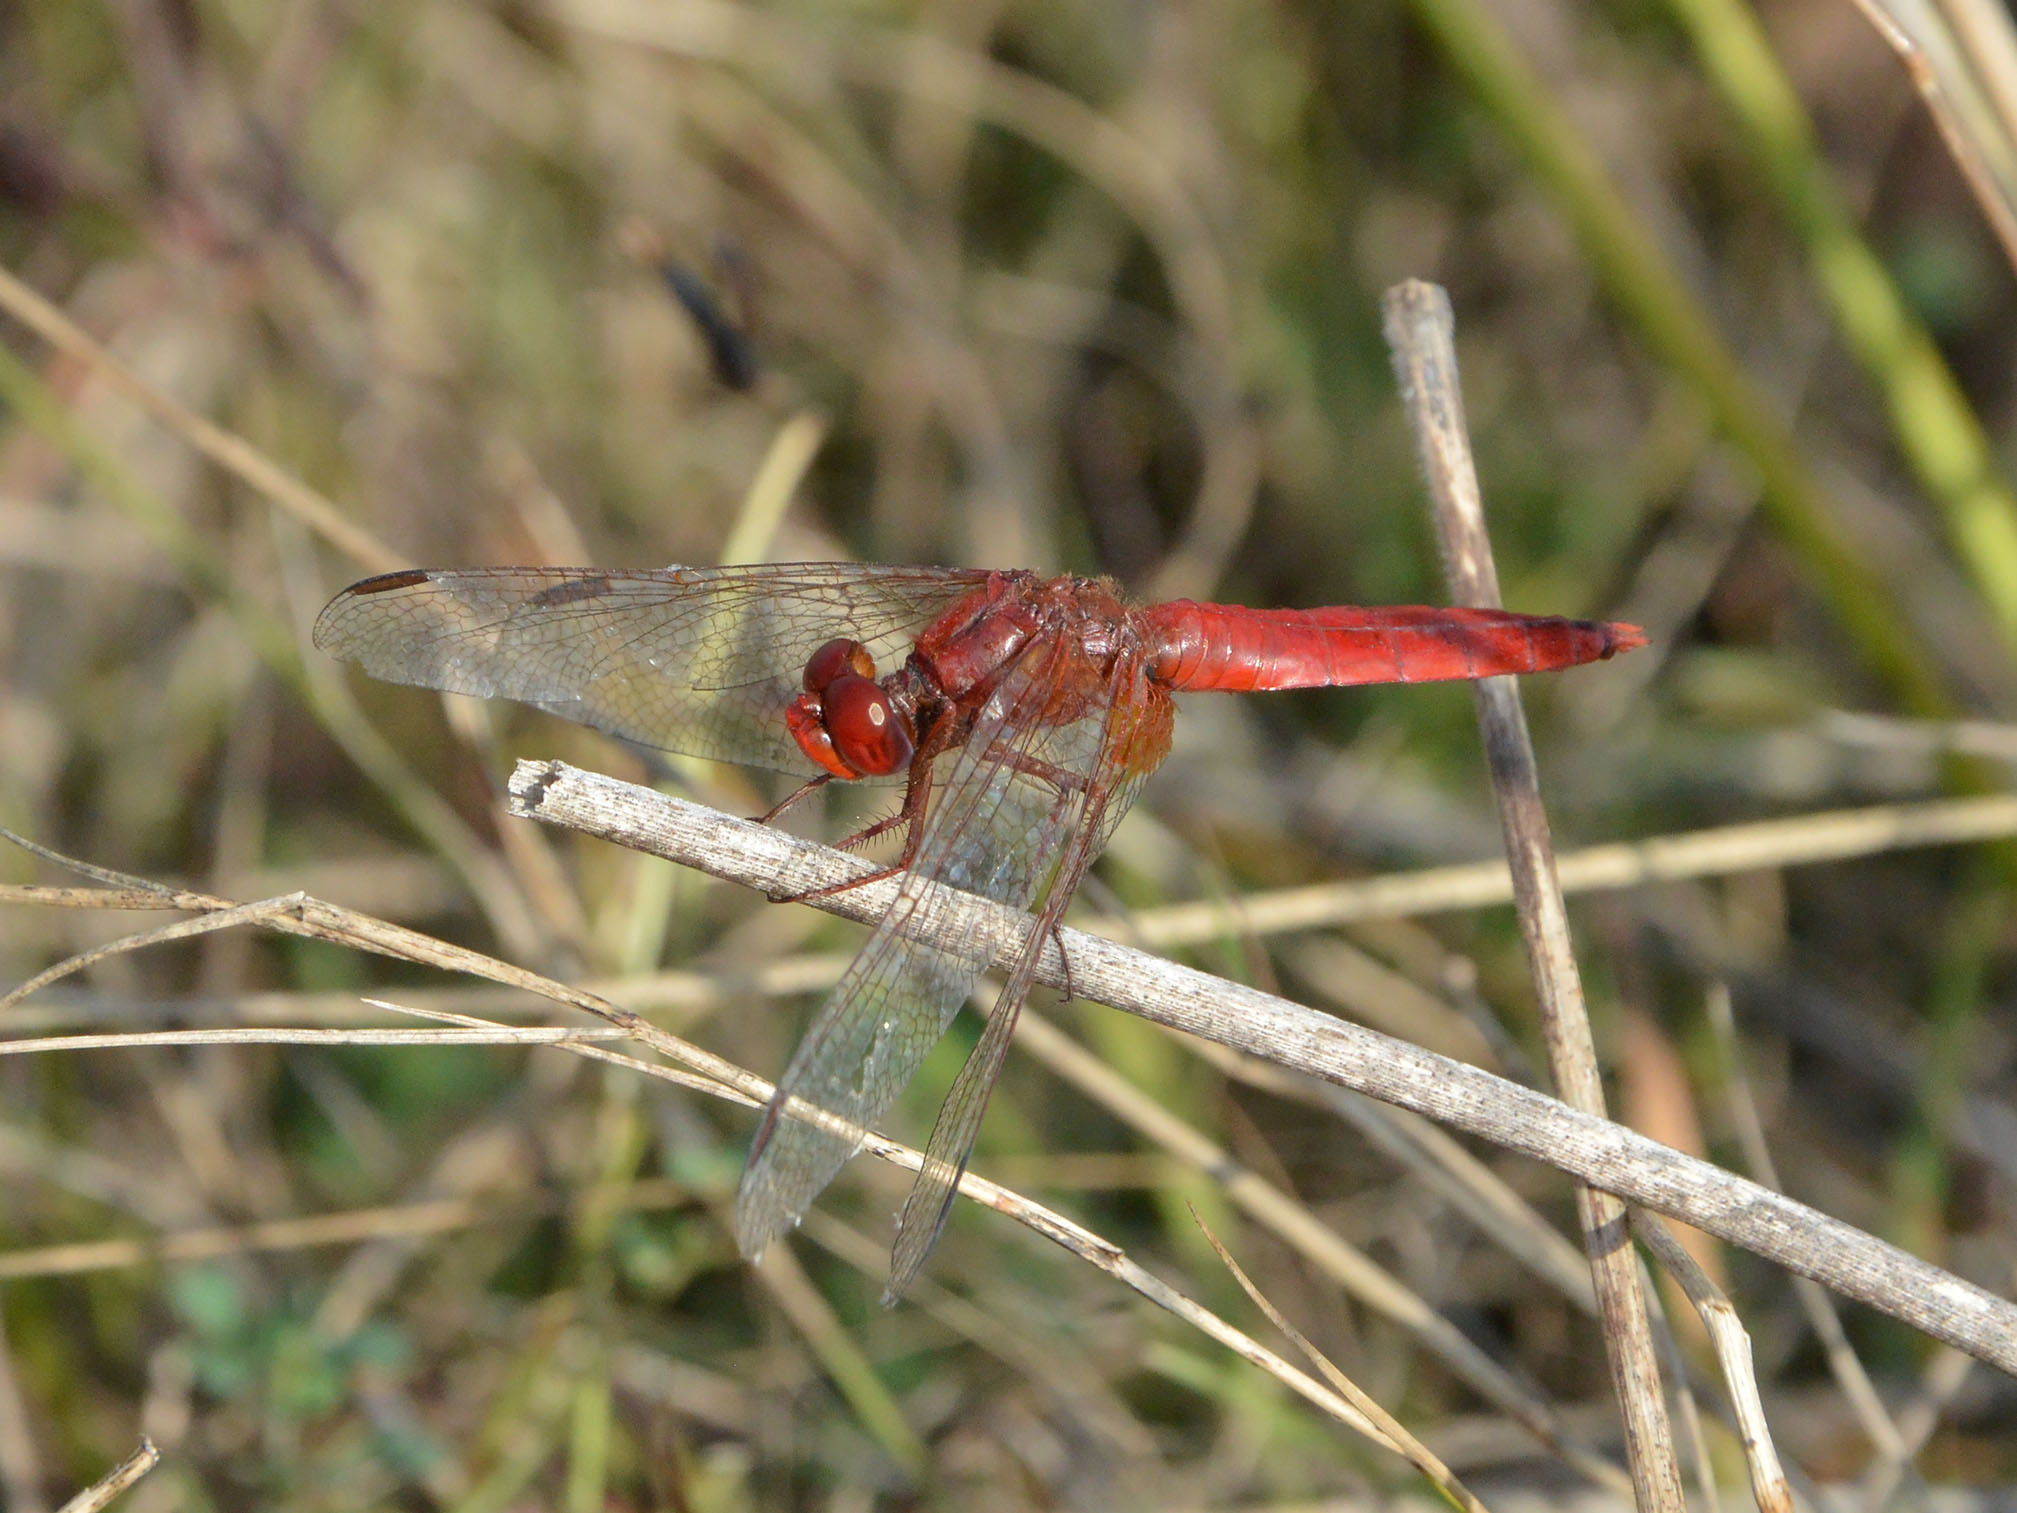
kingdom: Animalia
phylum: Arthropoda
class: Insecta
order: Odonata
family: Libellulidae
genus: Crocothemis
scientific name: Crocothemis erythraea
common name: Scarlet dragonfly
